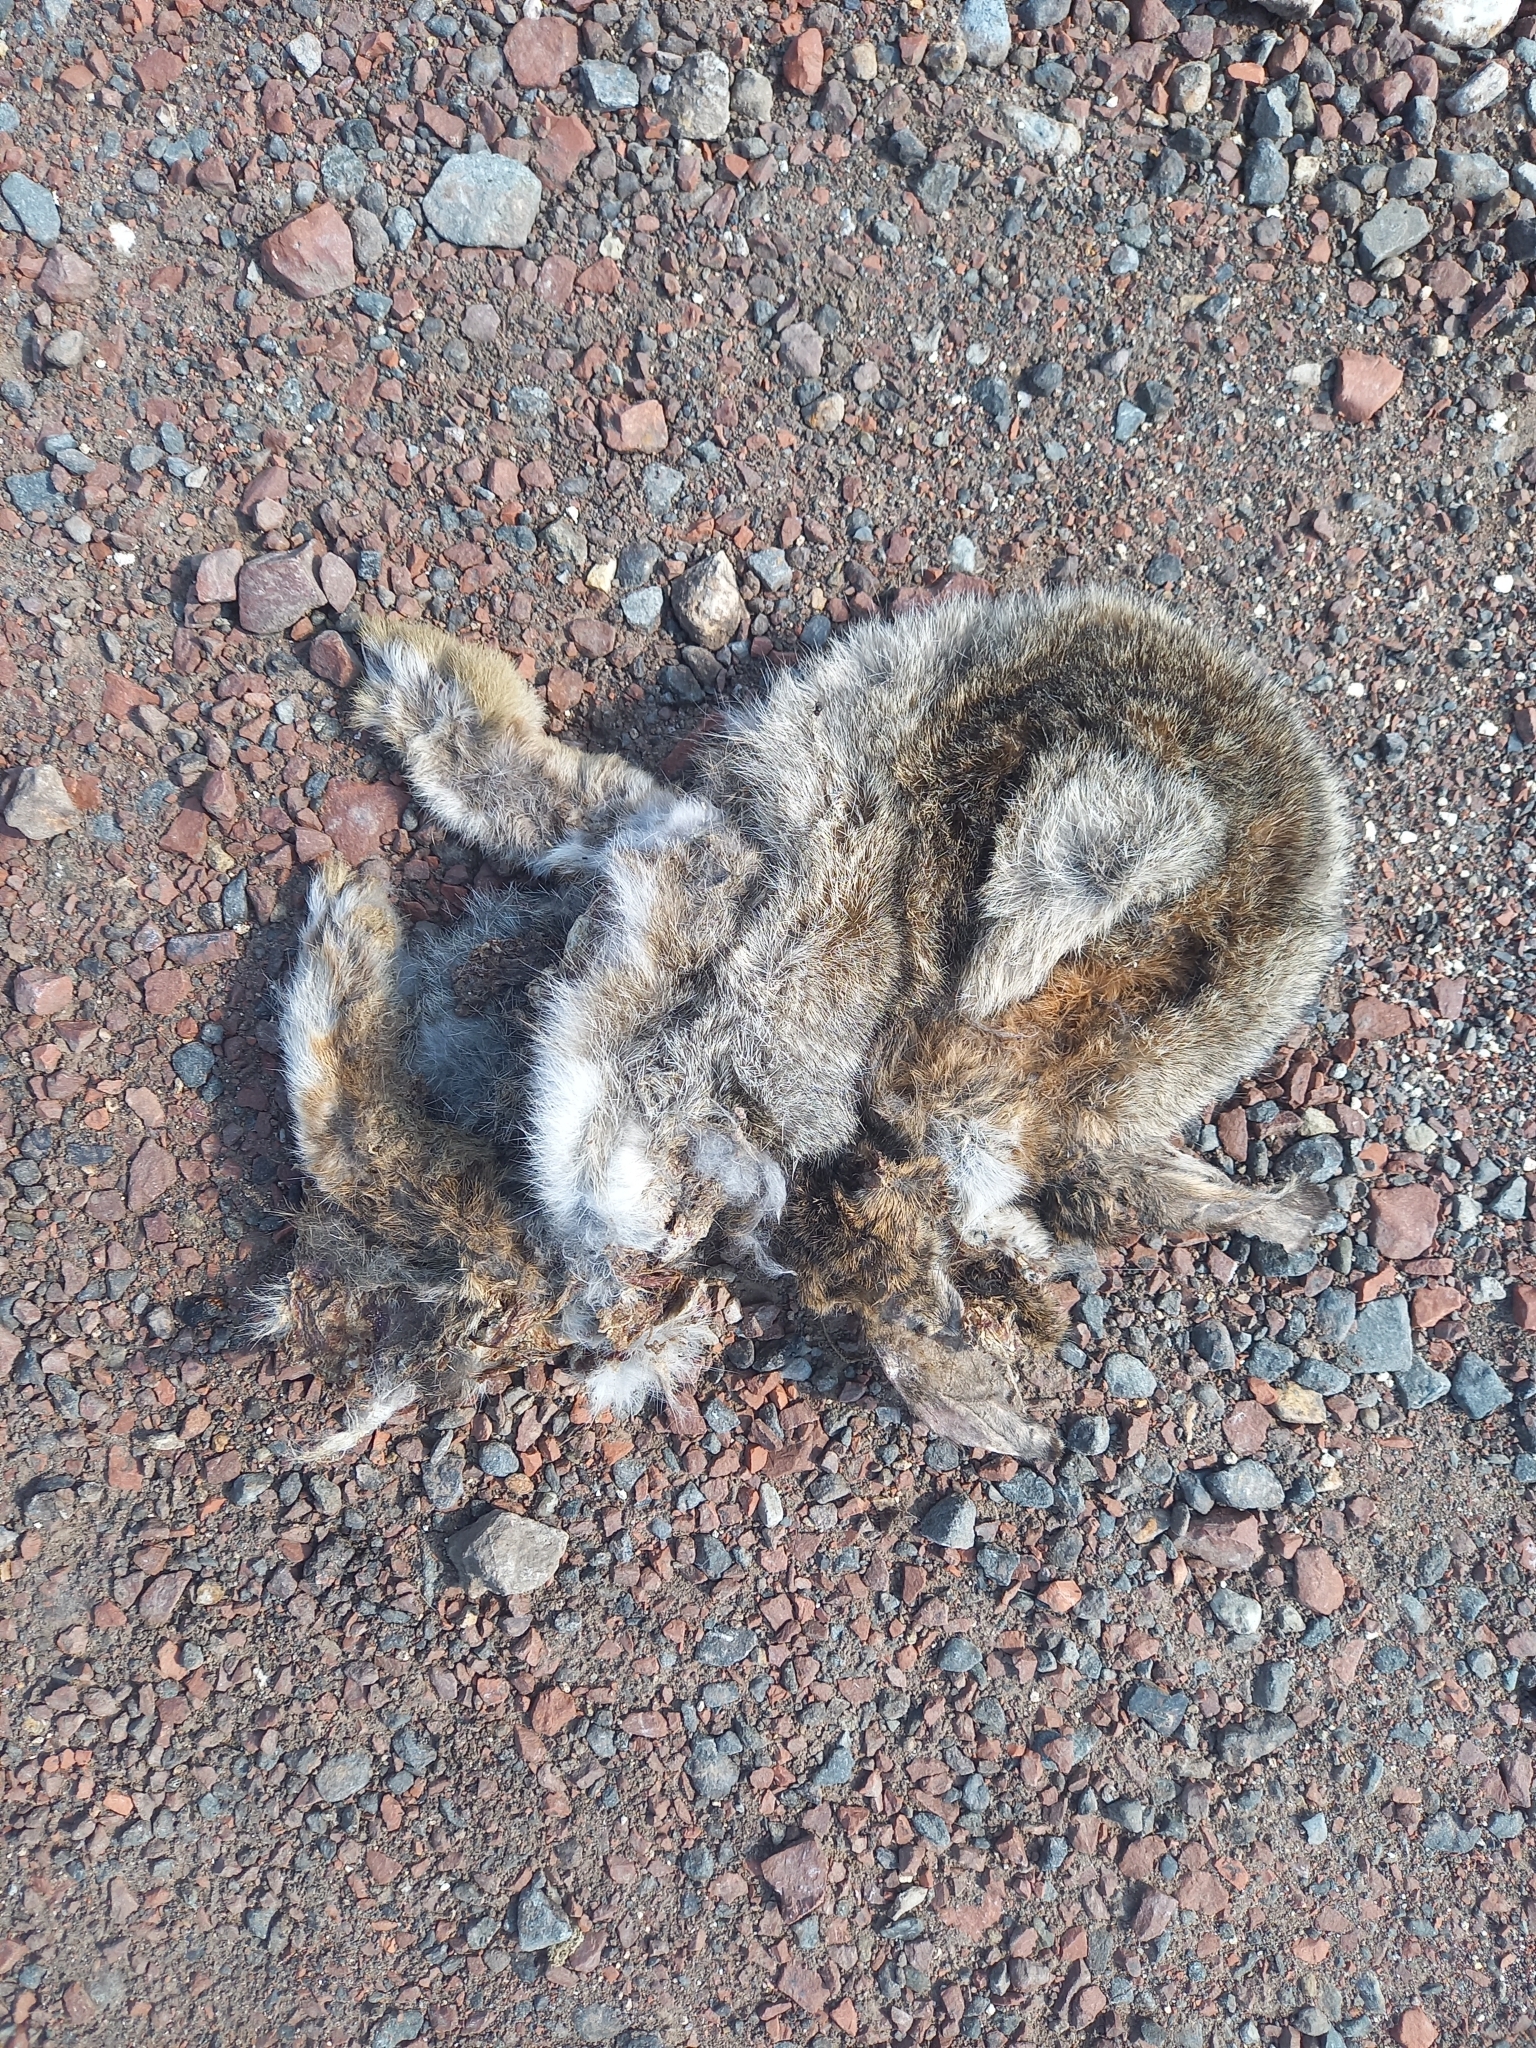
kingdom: Animalia
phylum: Chordata
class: Mammalia
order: Lagomorpha
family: Leporidae
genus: Oryctolagus
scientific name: Oryctolagus cuniculus
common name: European rabbit
